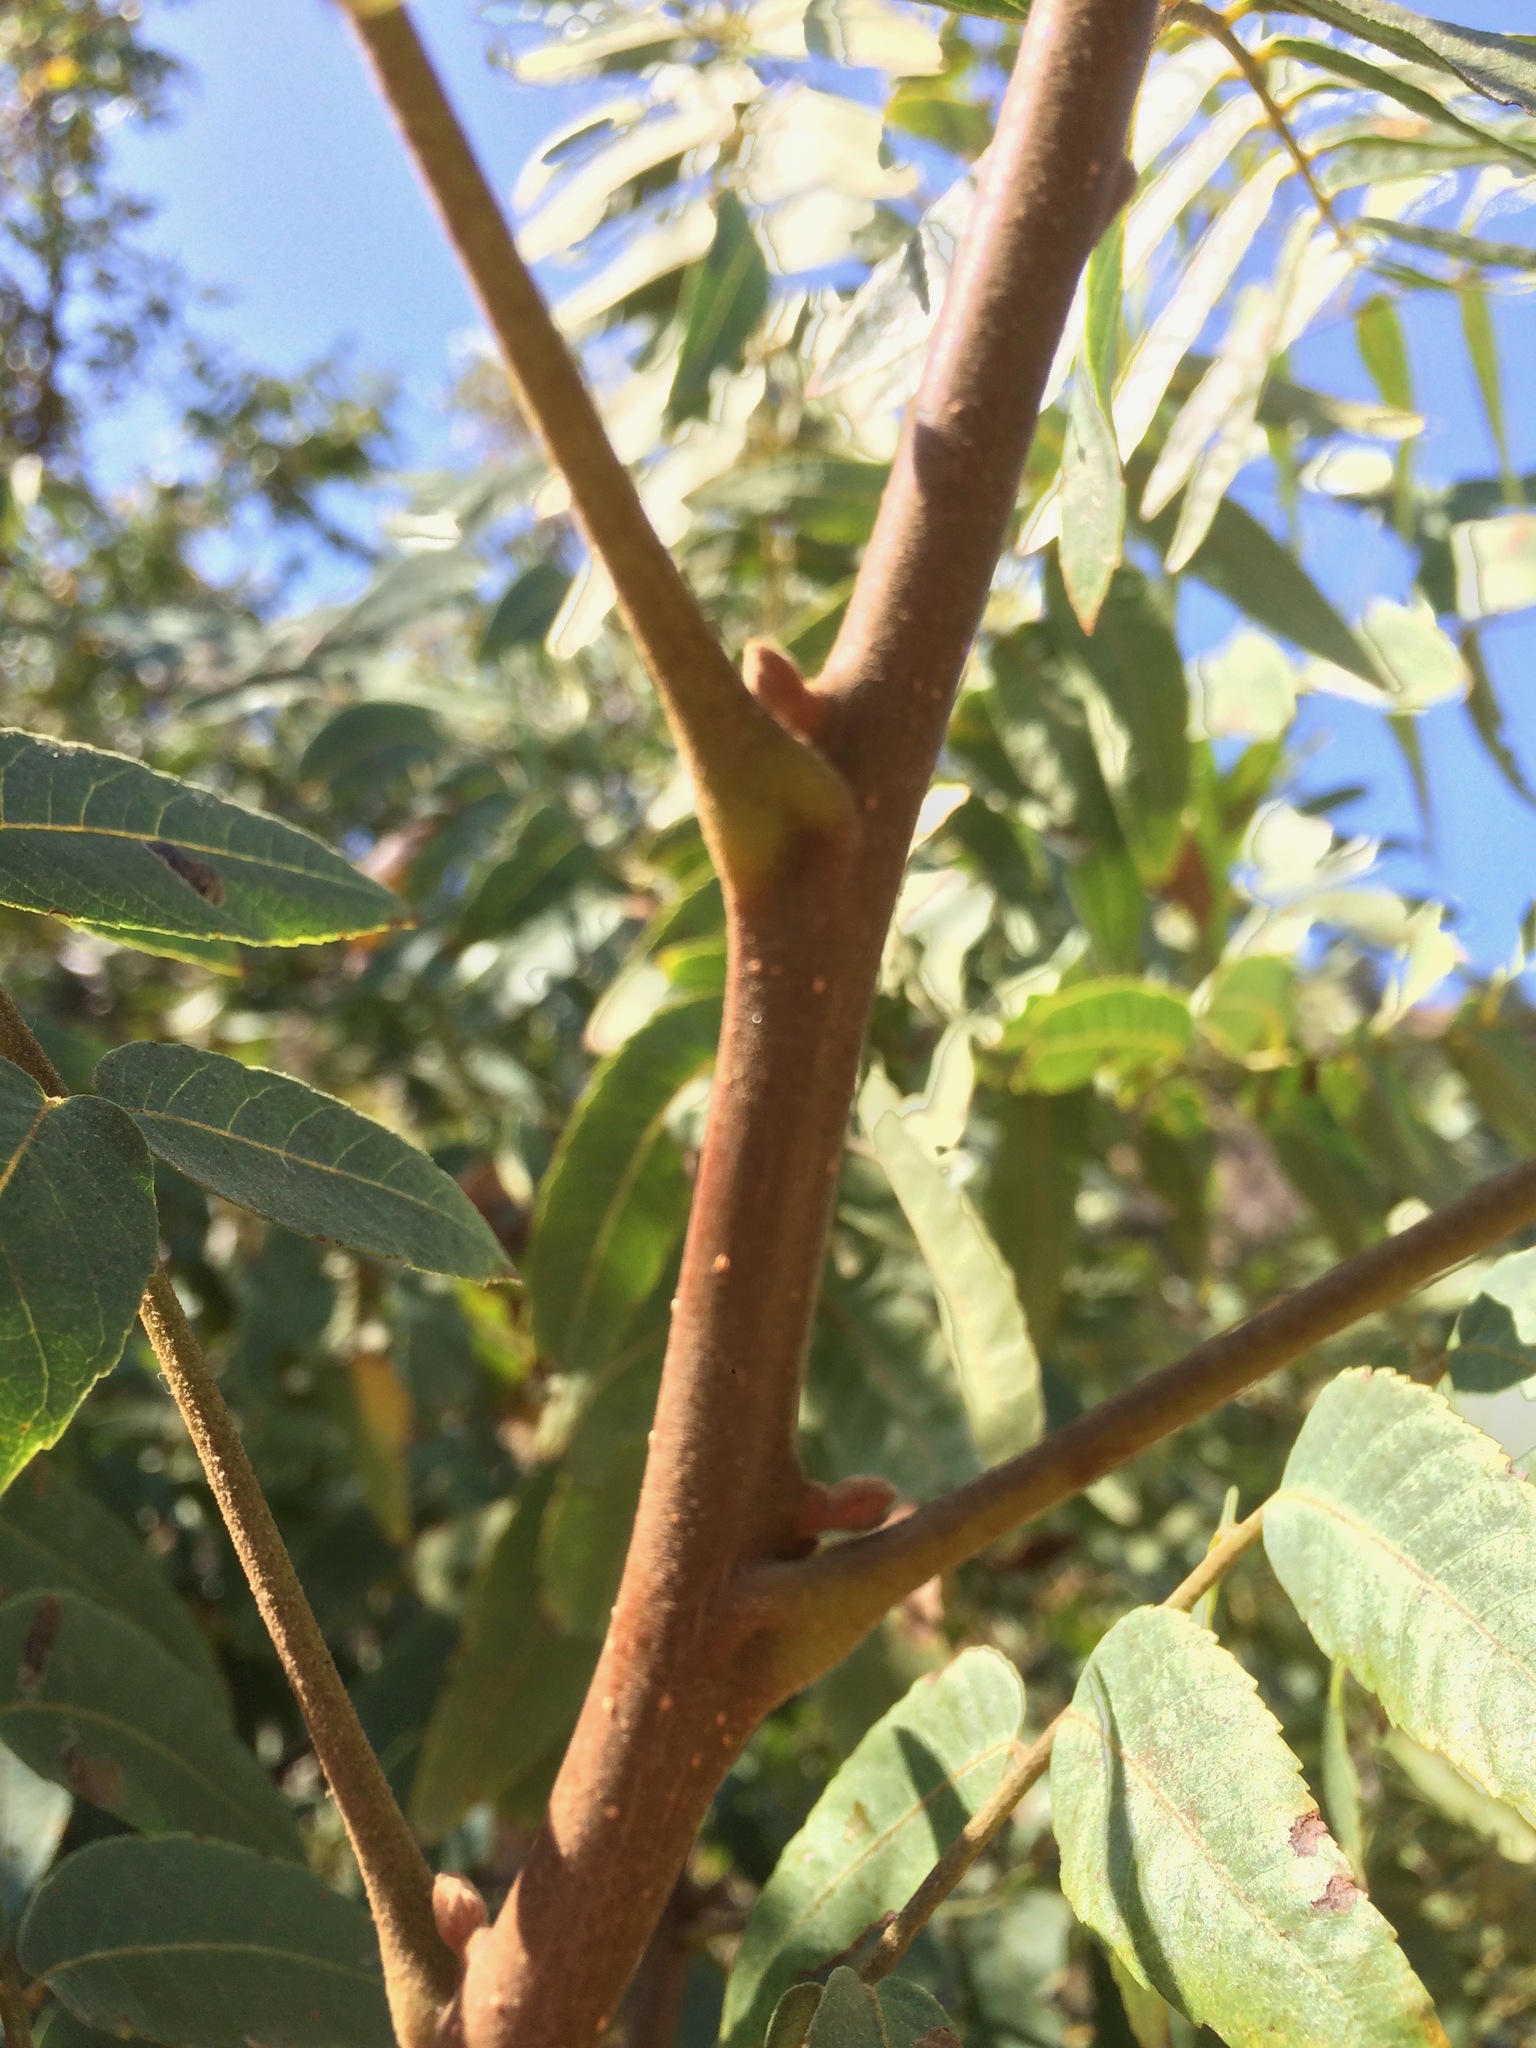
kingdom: Plantae
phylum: Tracheophyta
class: Magnoliopsida
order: Fagales
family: Juglandaceae
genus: Juglans
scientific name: Juglans californica
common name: Southern california black walnut
